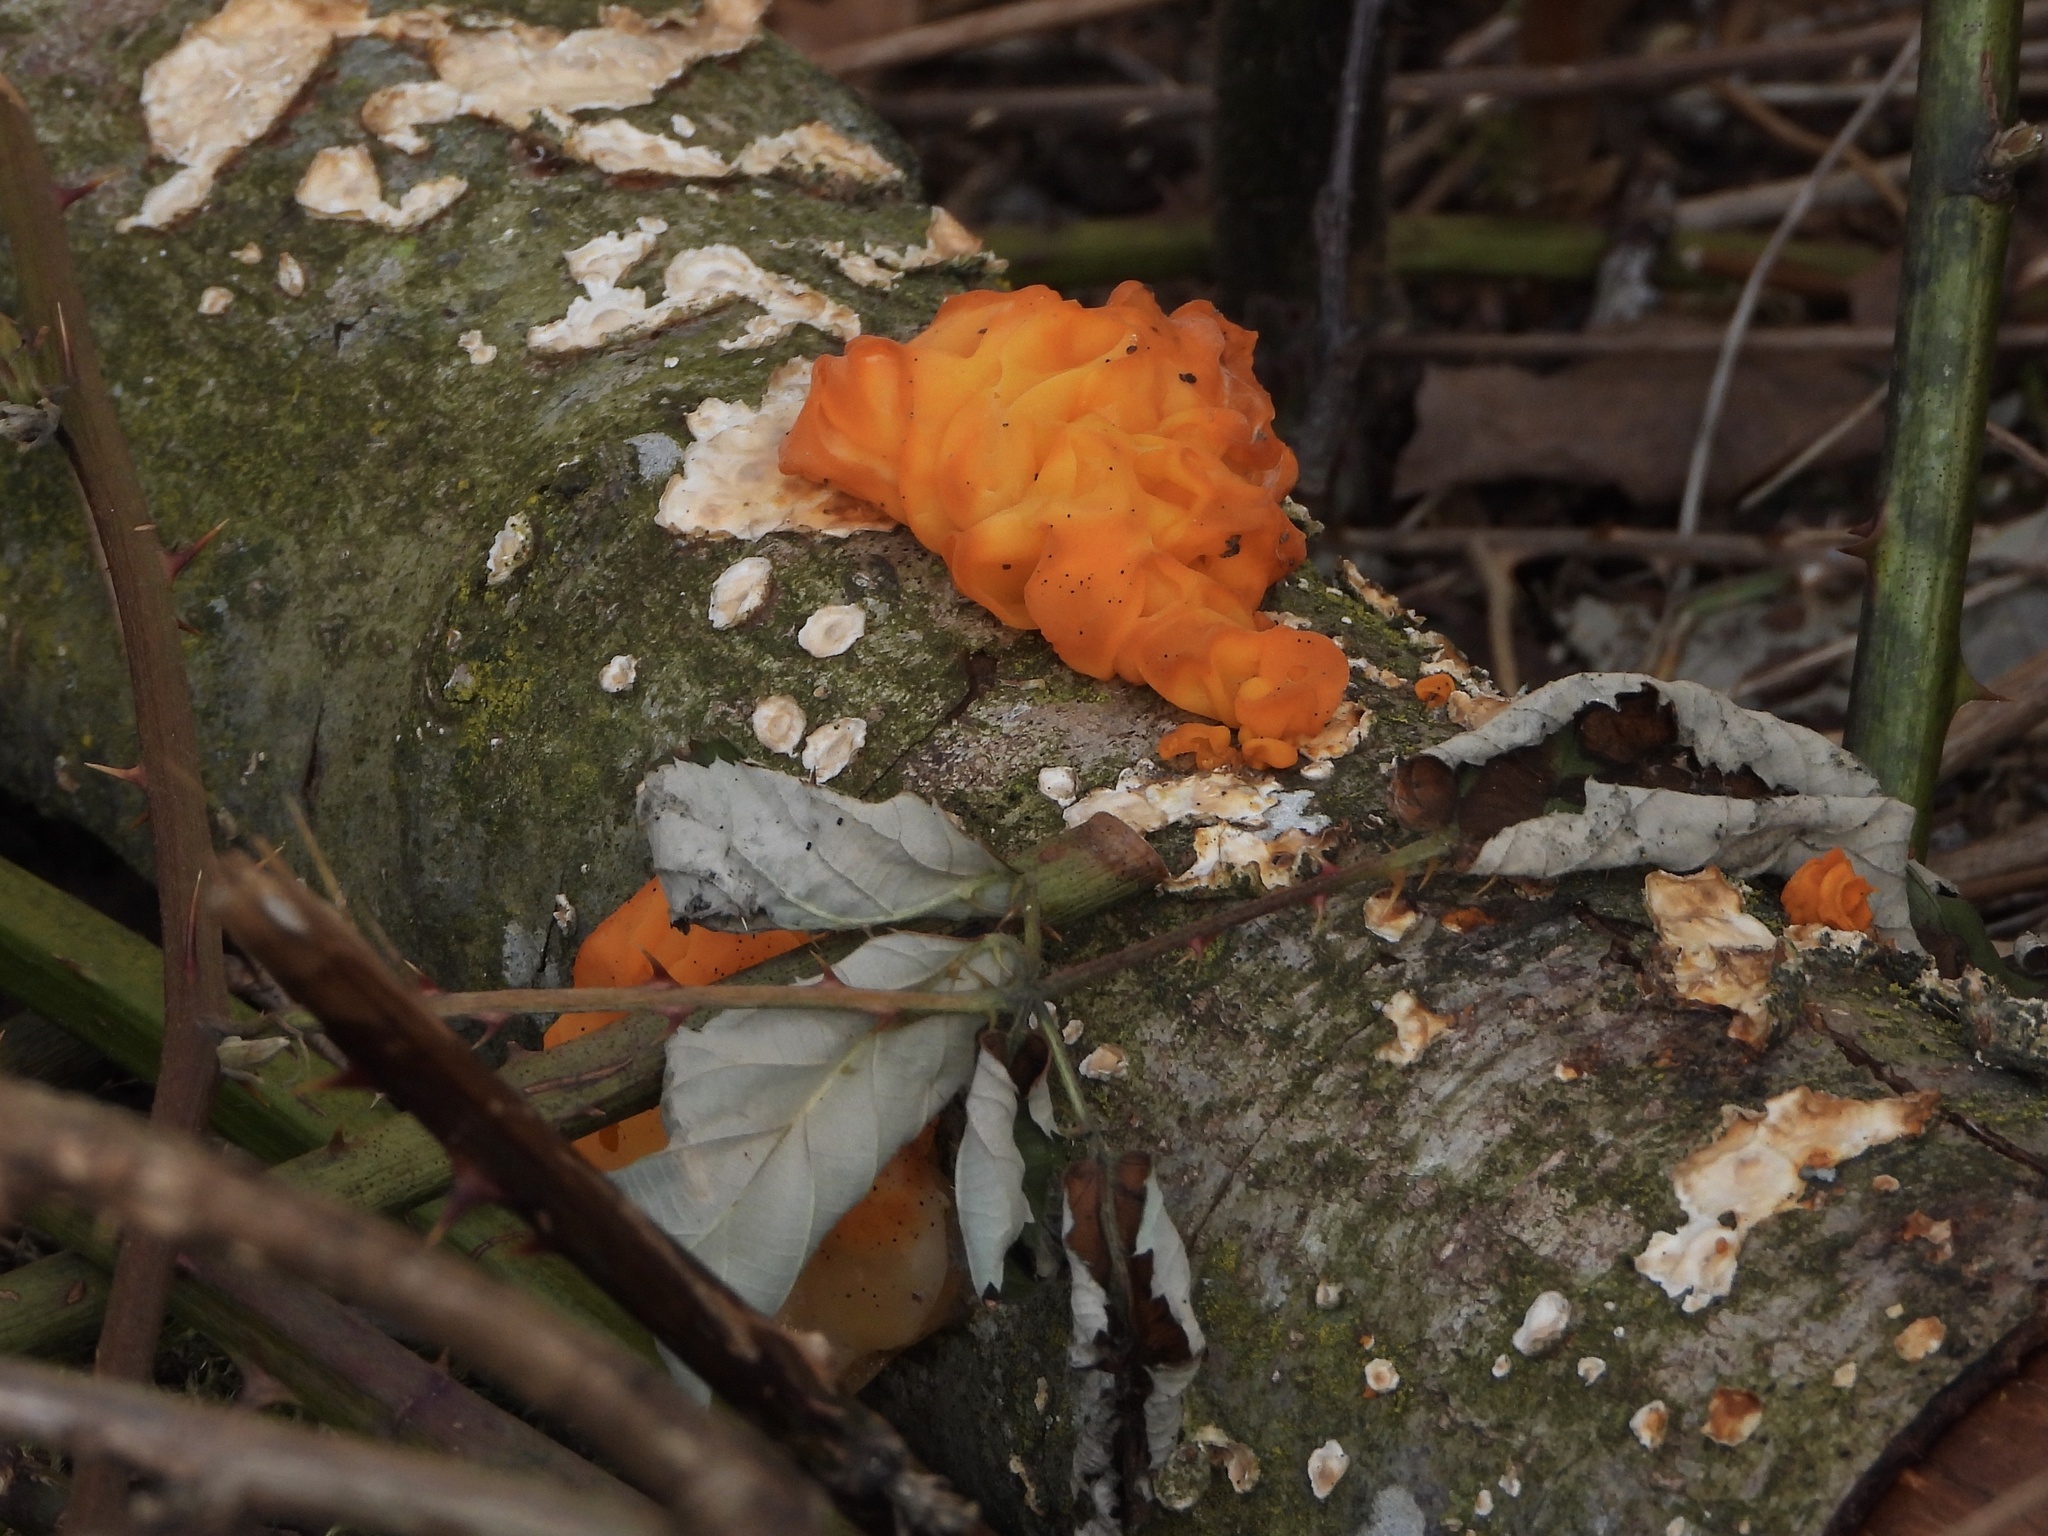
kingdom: Fungi
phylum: Basidiomycota
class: Tremellomycetes
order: Tremellales
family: Tremellaceae
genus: Tremella
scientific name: Tremella mesenterica
